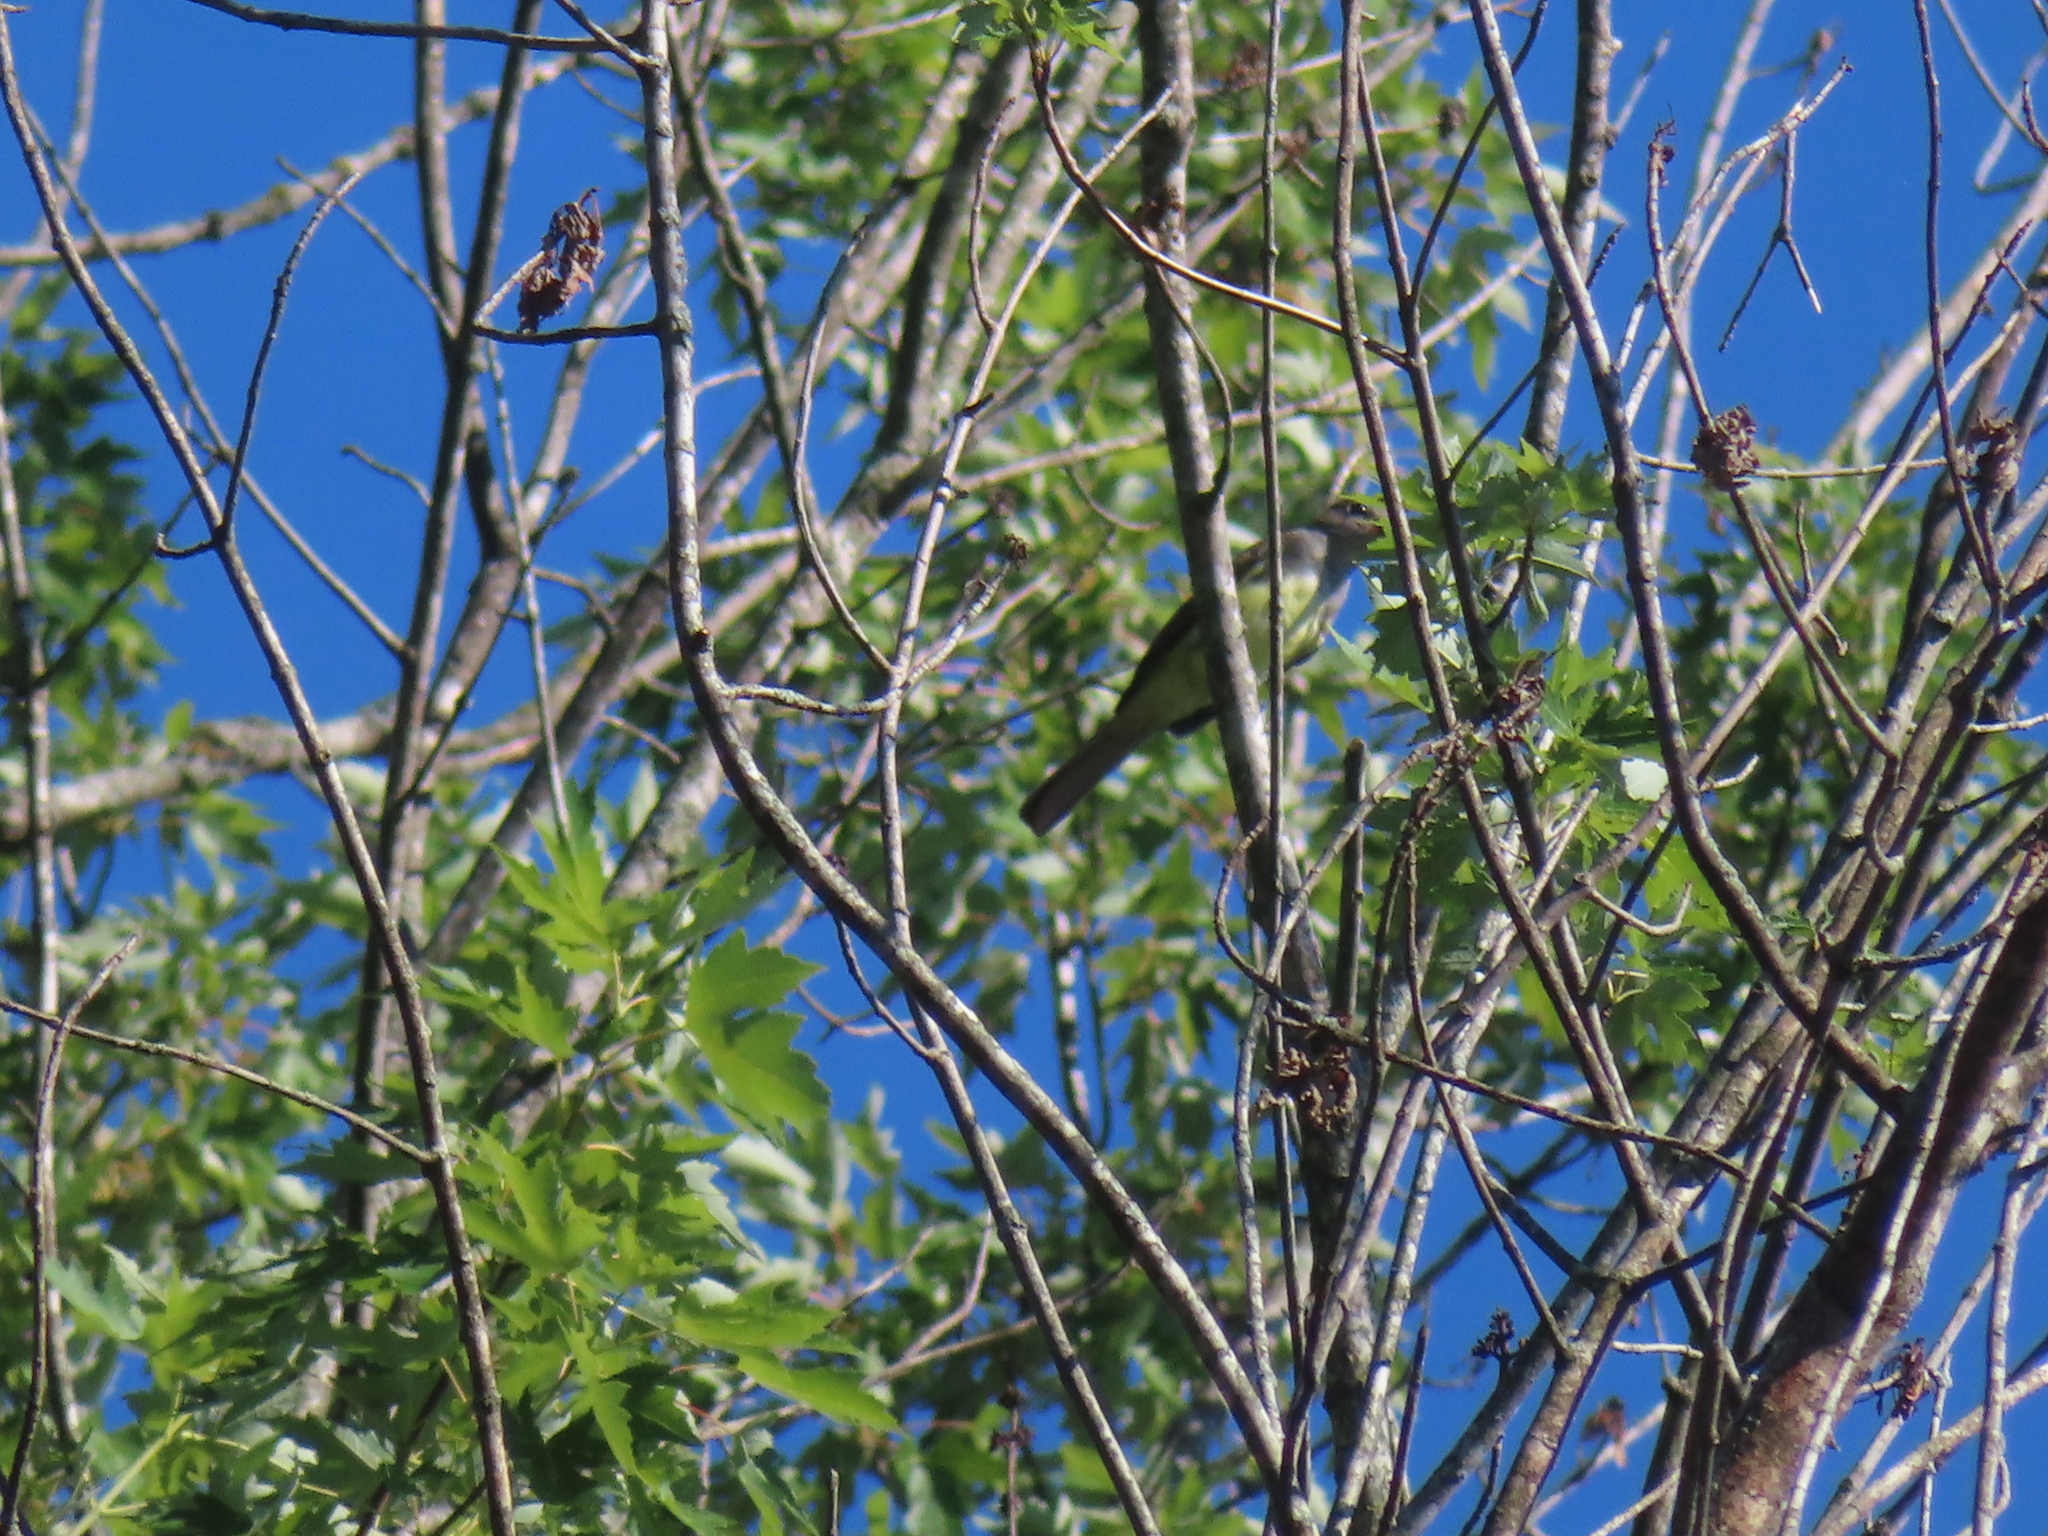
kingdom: Animalia
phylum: Chordata
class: Aves
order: Passeriformes
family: Tyrannidae
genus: Myiarchus
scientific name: Myiarchus crinitus
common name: Great crested flycatcher
